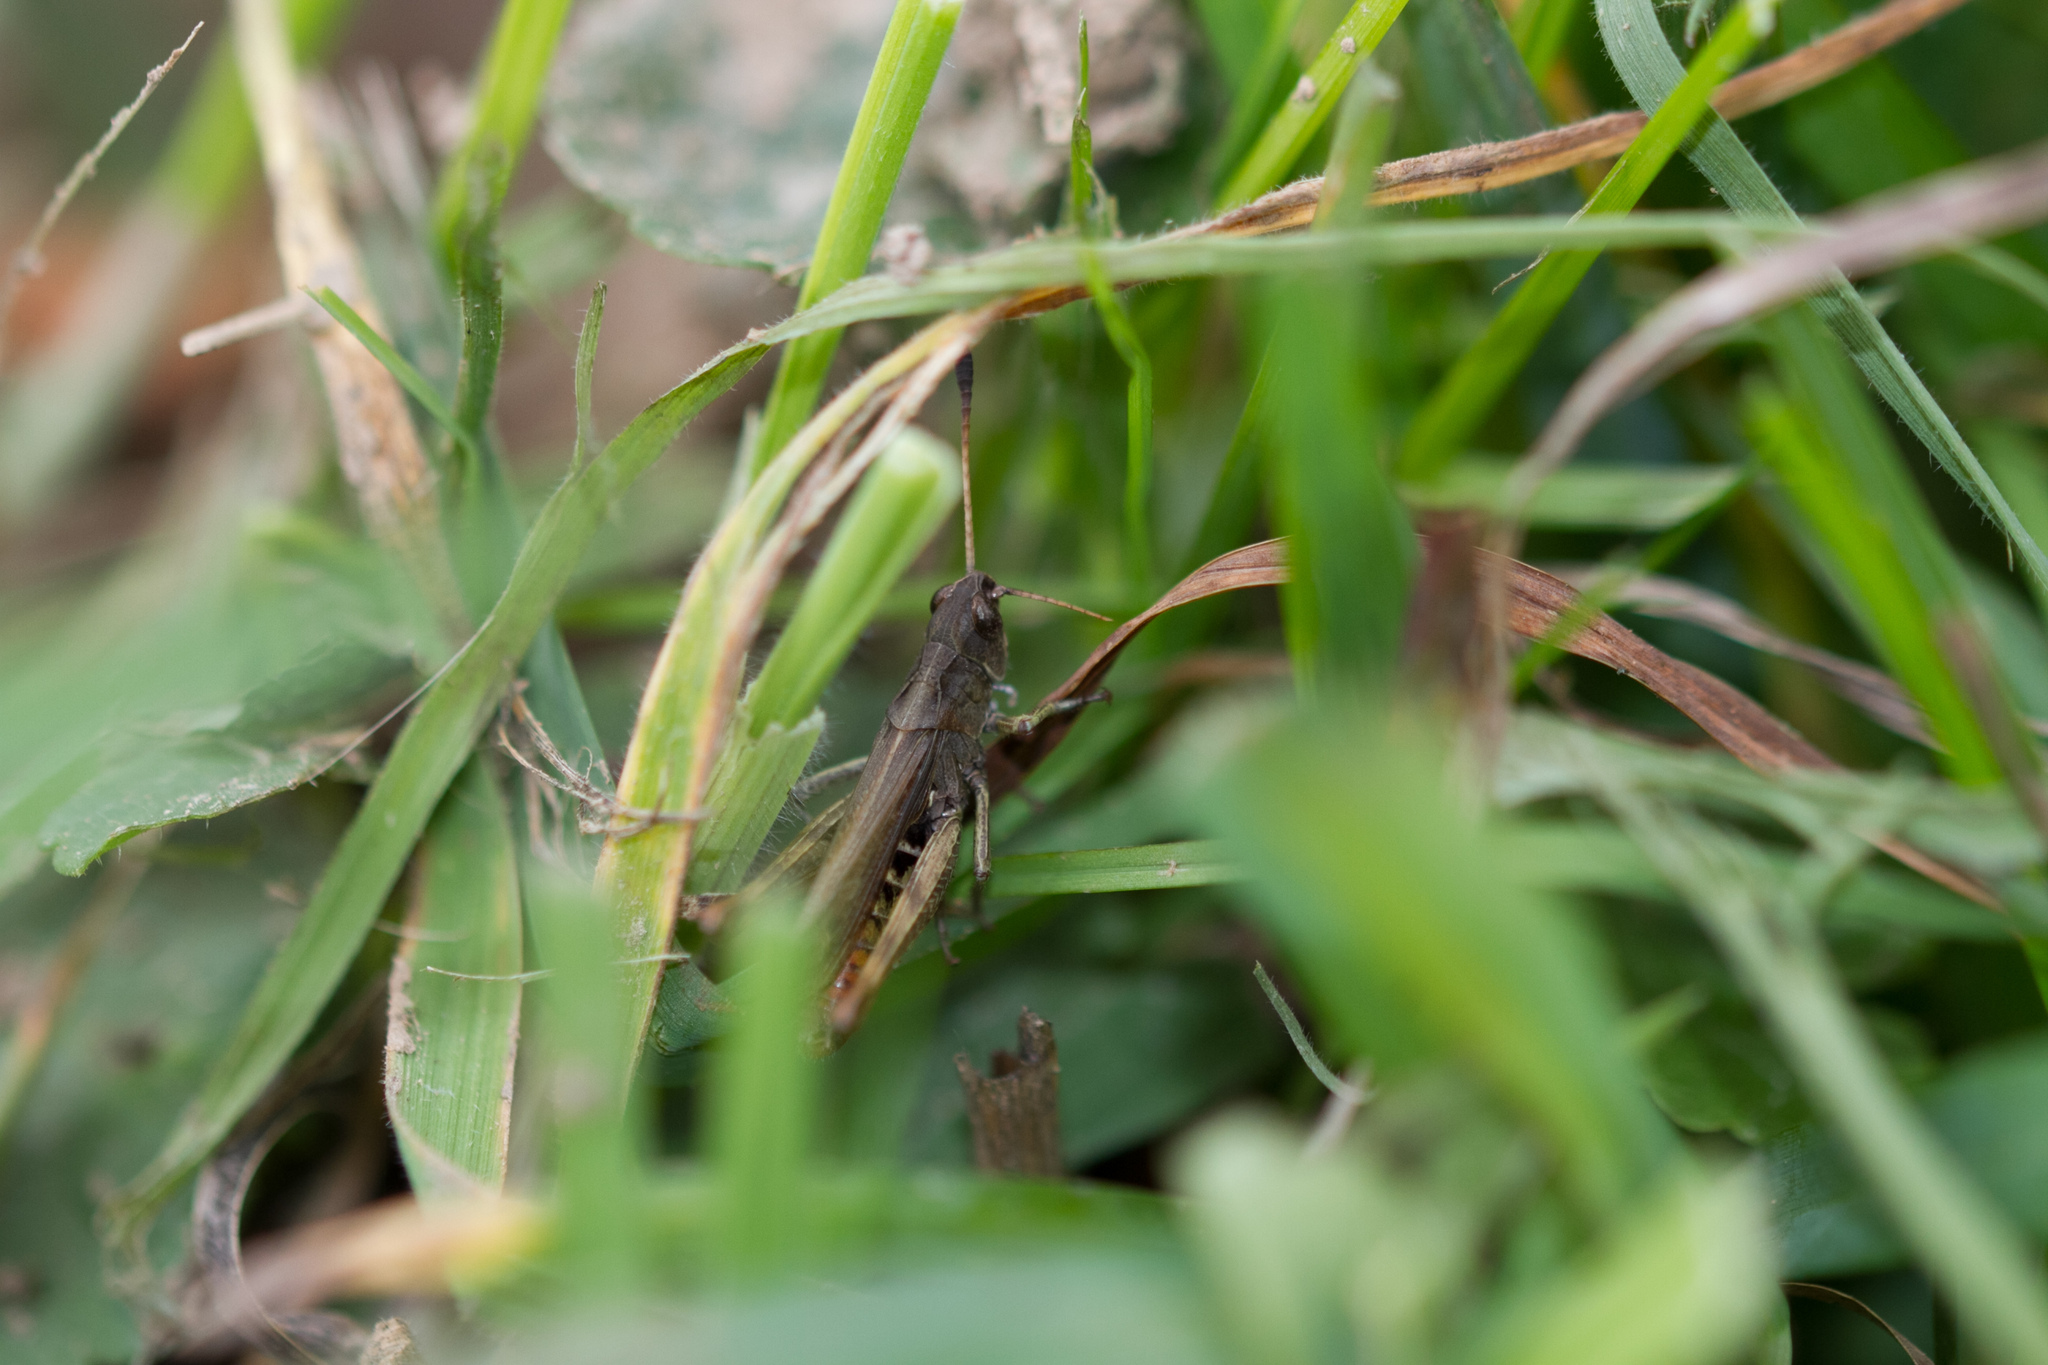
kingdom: Animalia
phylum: Arthropoda
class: Insecta
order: Orthoptera
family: Acrididae
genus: Gomphocerippus
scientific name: Gomphocerippus rufus
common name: Rufous grasshopper
